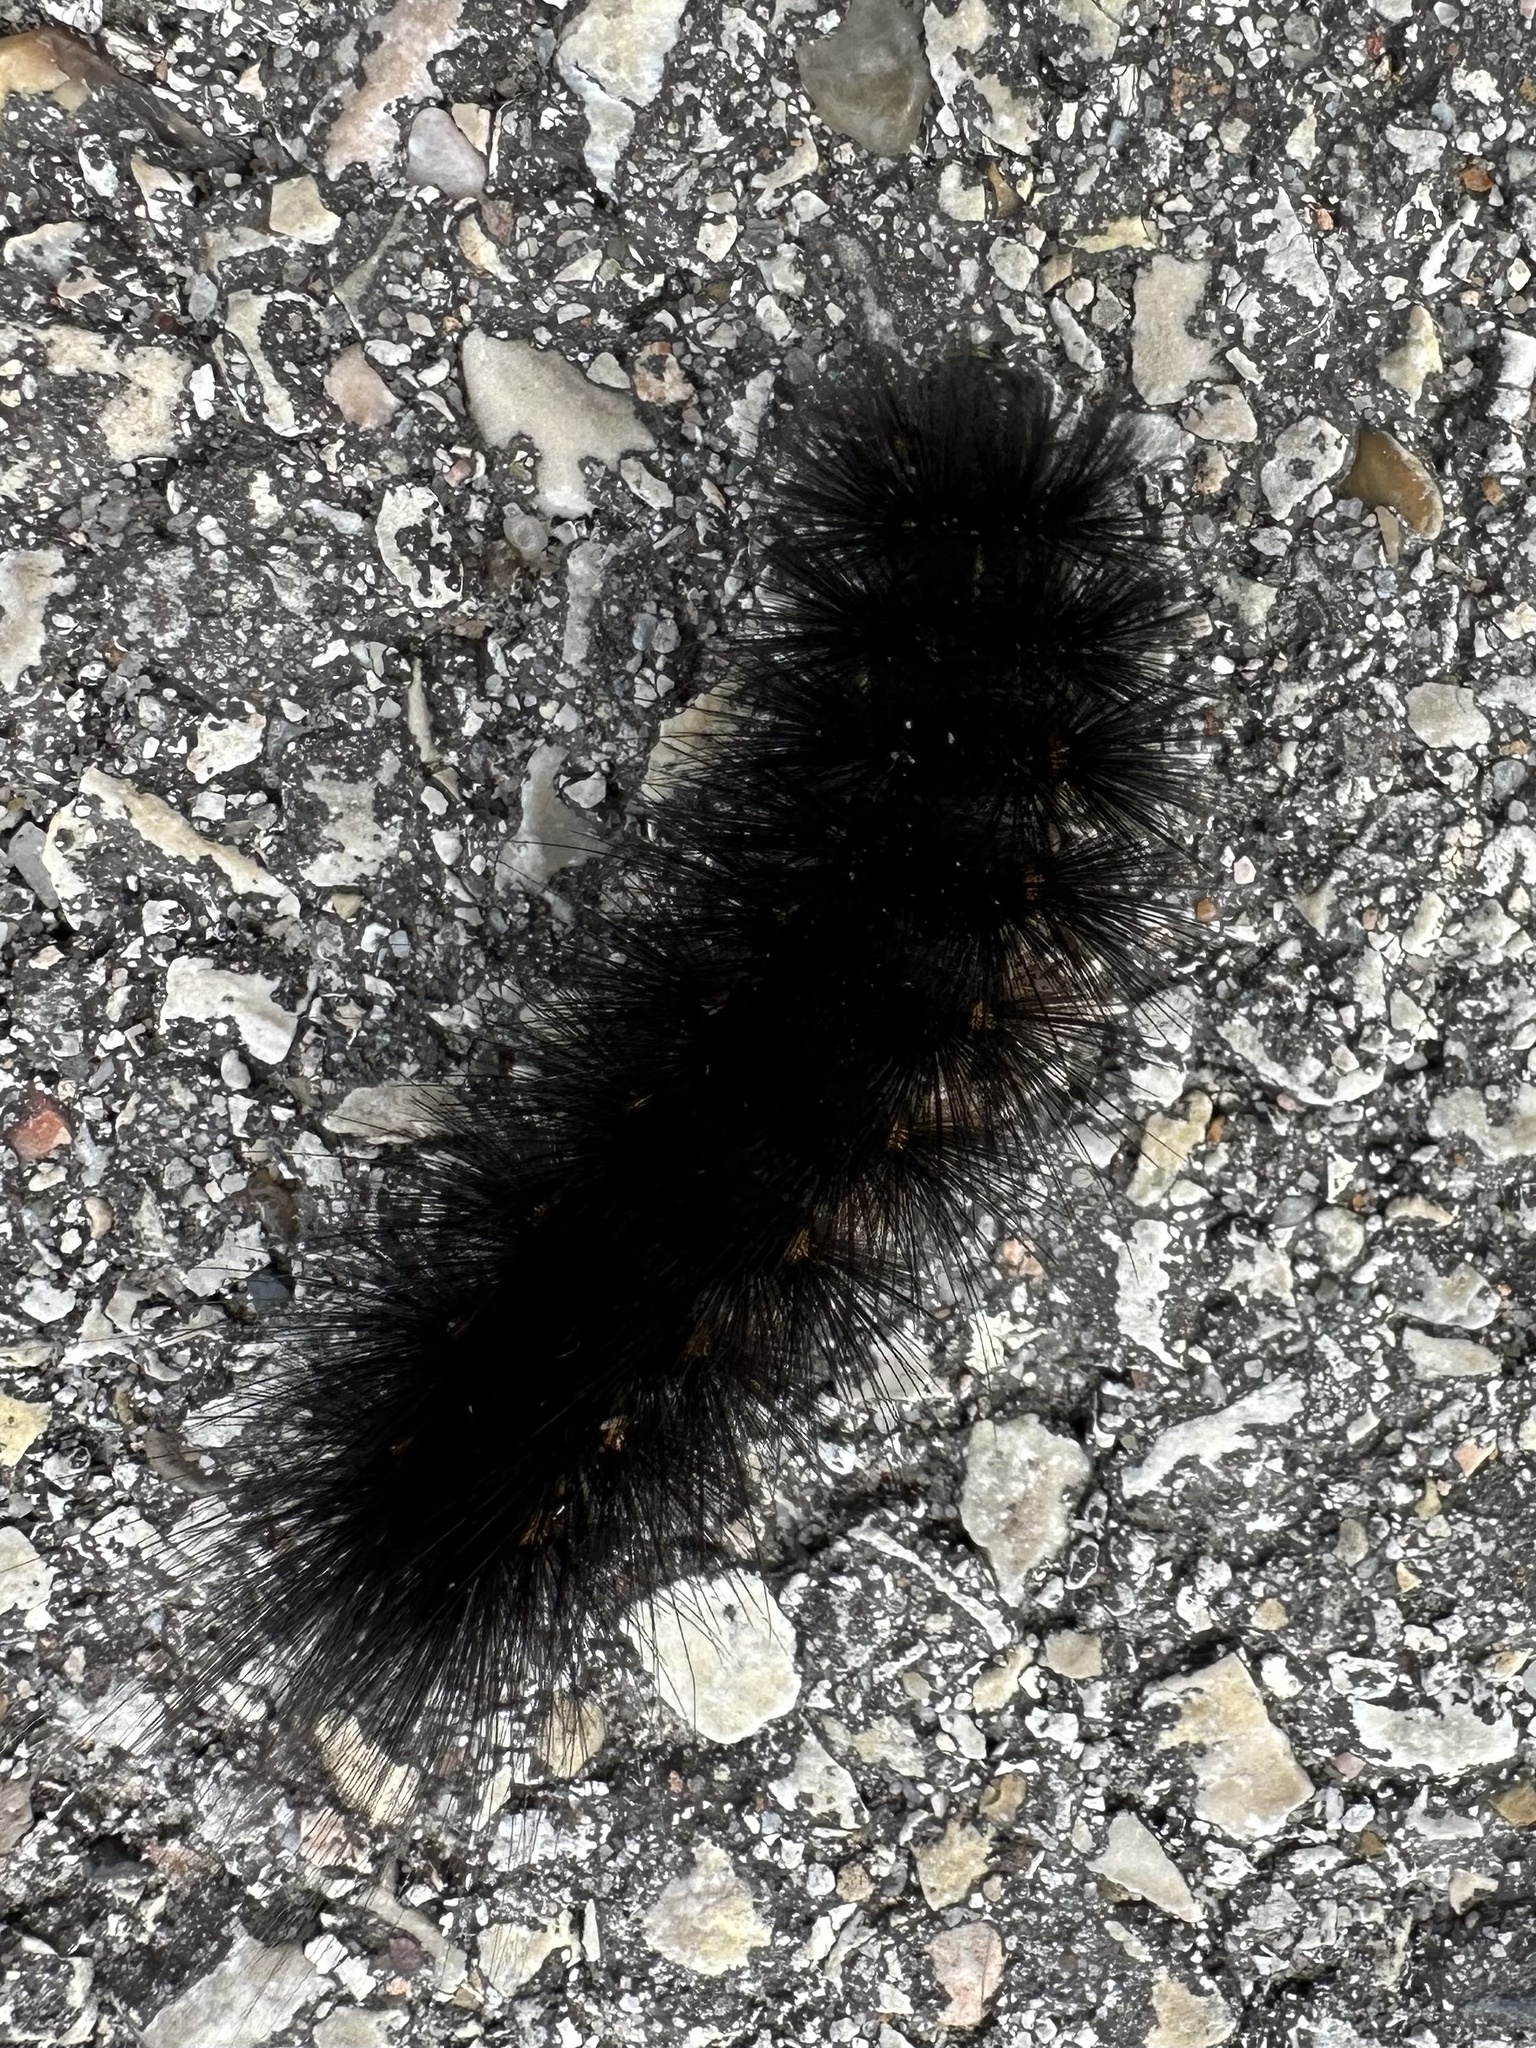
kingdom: Animalia
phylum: Arthropoda
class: Insecta
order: Lepidoptera
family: Erebidae
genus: Estigmene
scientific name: Estigmene acrea
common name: Salt marsh moth
